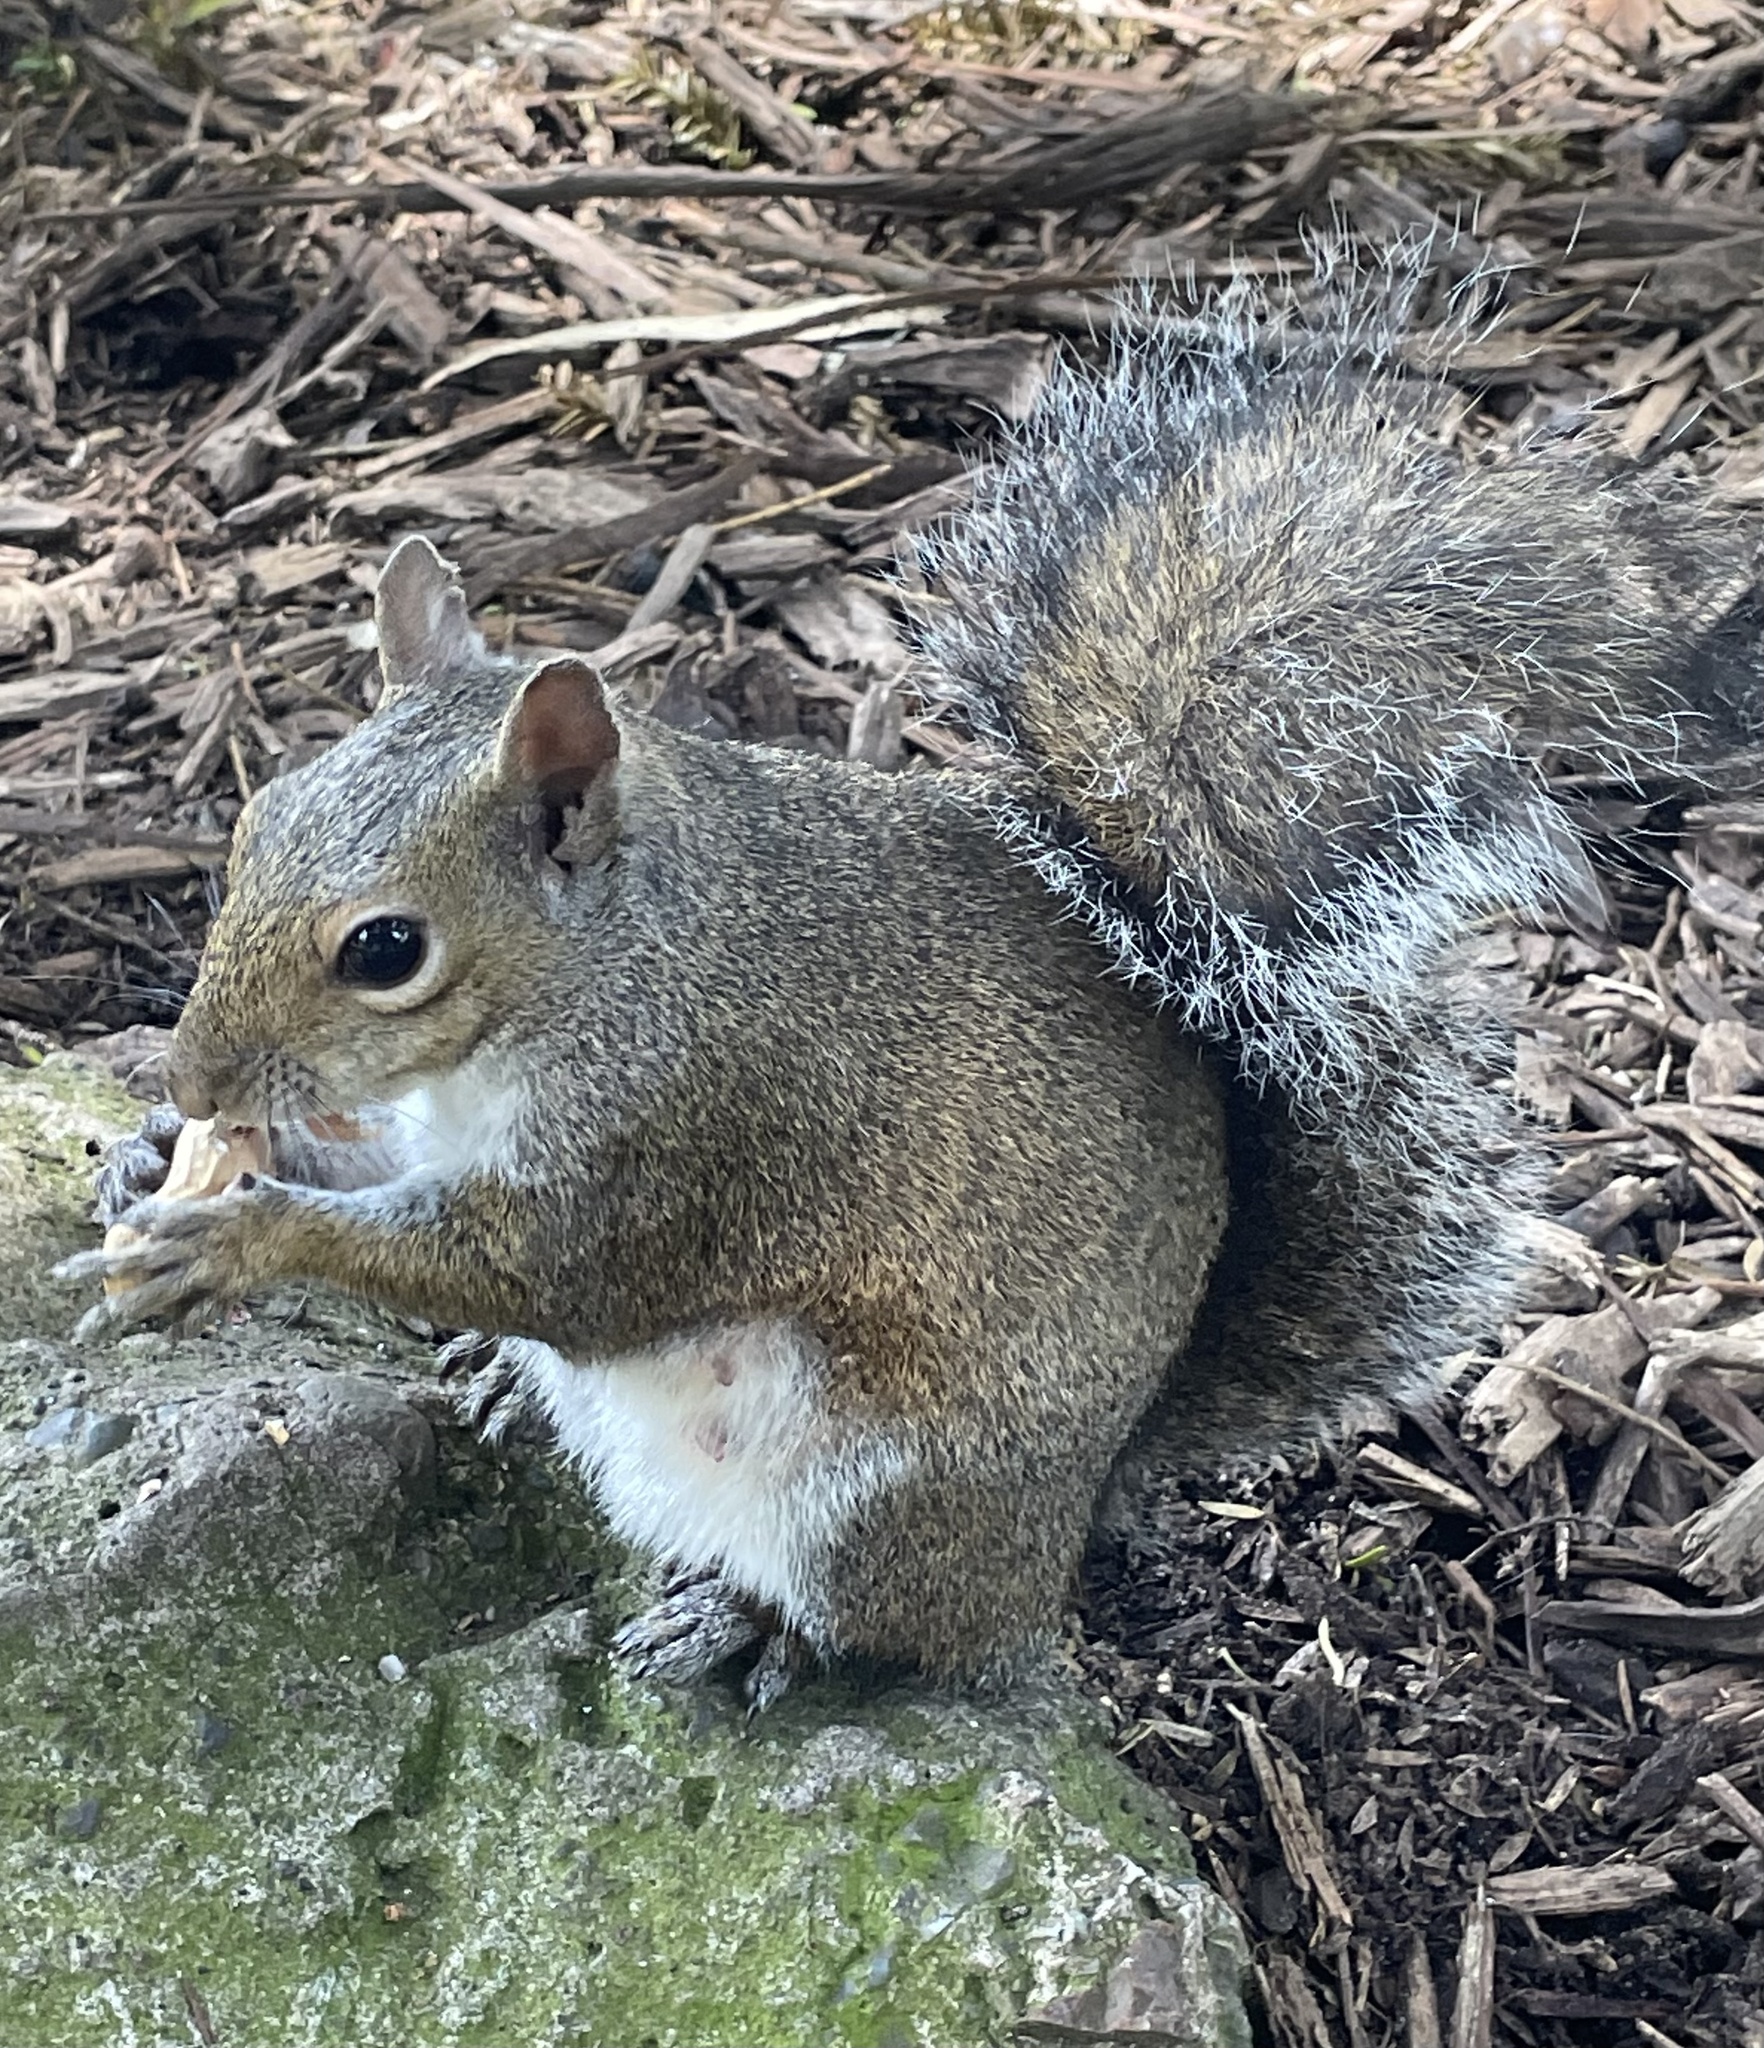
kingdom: Animalia
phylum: Chordata
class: Mammalia
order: Rodentia
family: Sciuridae
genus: Sciurus
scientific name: Sciurus carolinensis
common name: Eastern gray squirrel
